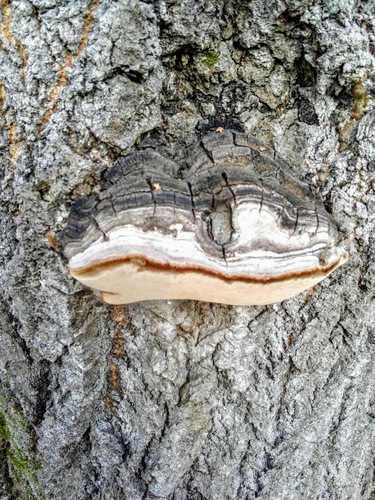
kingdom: Fungi
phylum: Basidiomycota
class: Agaricomycetes
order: Hymenochaetales
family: Hymenochaetaceae
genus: Phellinus
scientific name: Phellinus tremulae
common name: Aspen bracket
